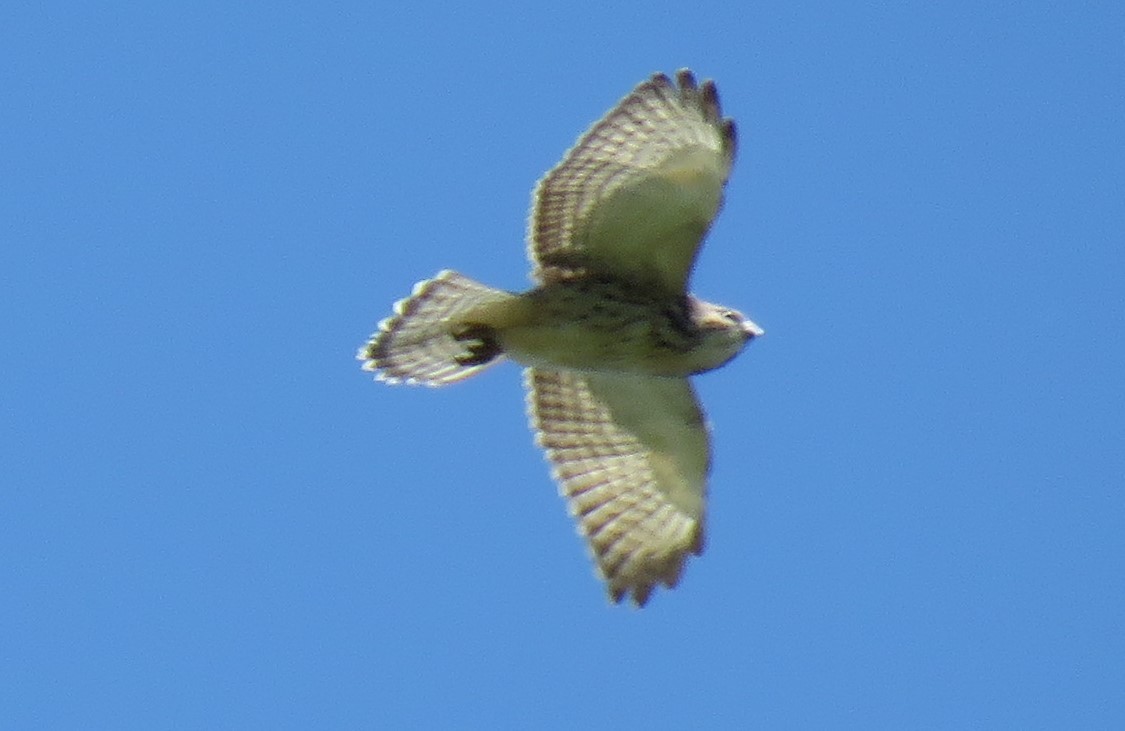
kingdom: Animalia
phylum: Chordata
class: Aves
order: Accipitriformes
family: Accipitridae
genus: Buteo
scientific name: Buteo platypterus
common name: Broad-winged hawk
